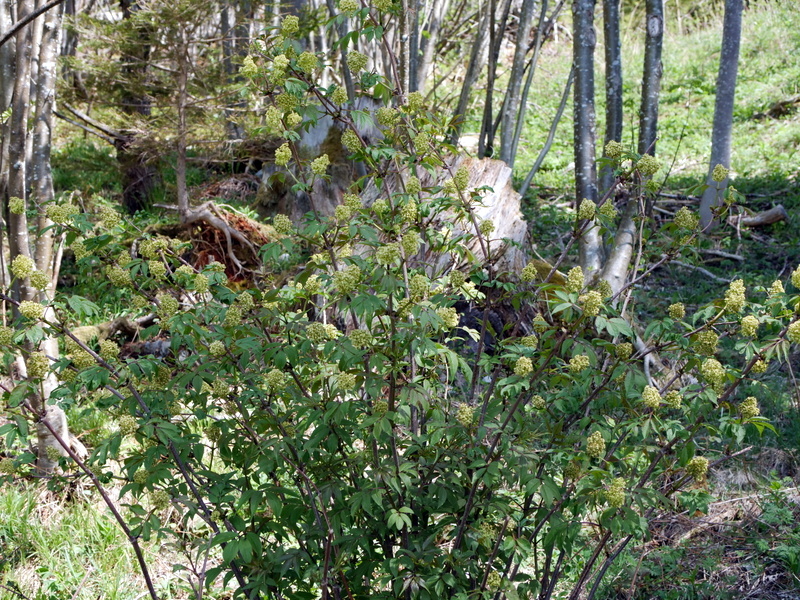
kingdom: Plantae
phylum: Tracheophyta
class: Magnoliopsida
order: Dipsacales
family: Viburnaceae
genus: Sambucus
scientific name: Sambucus racemosa
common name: Red-berried elder
